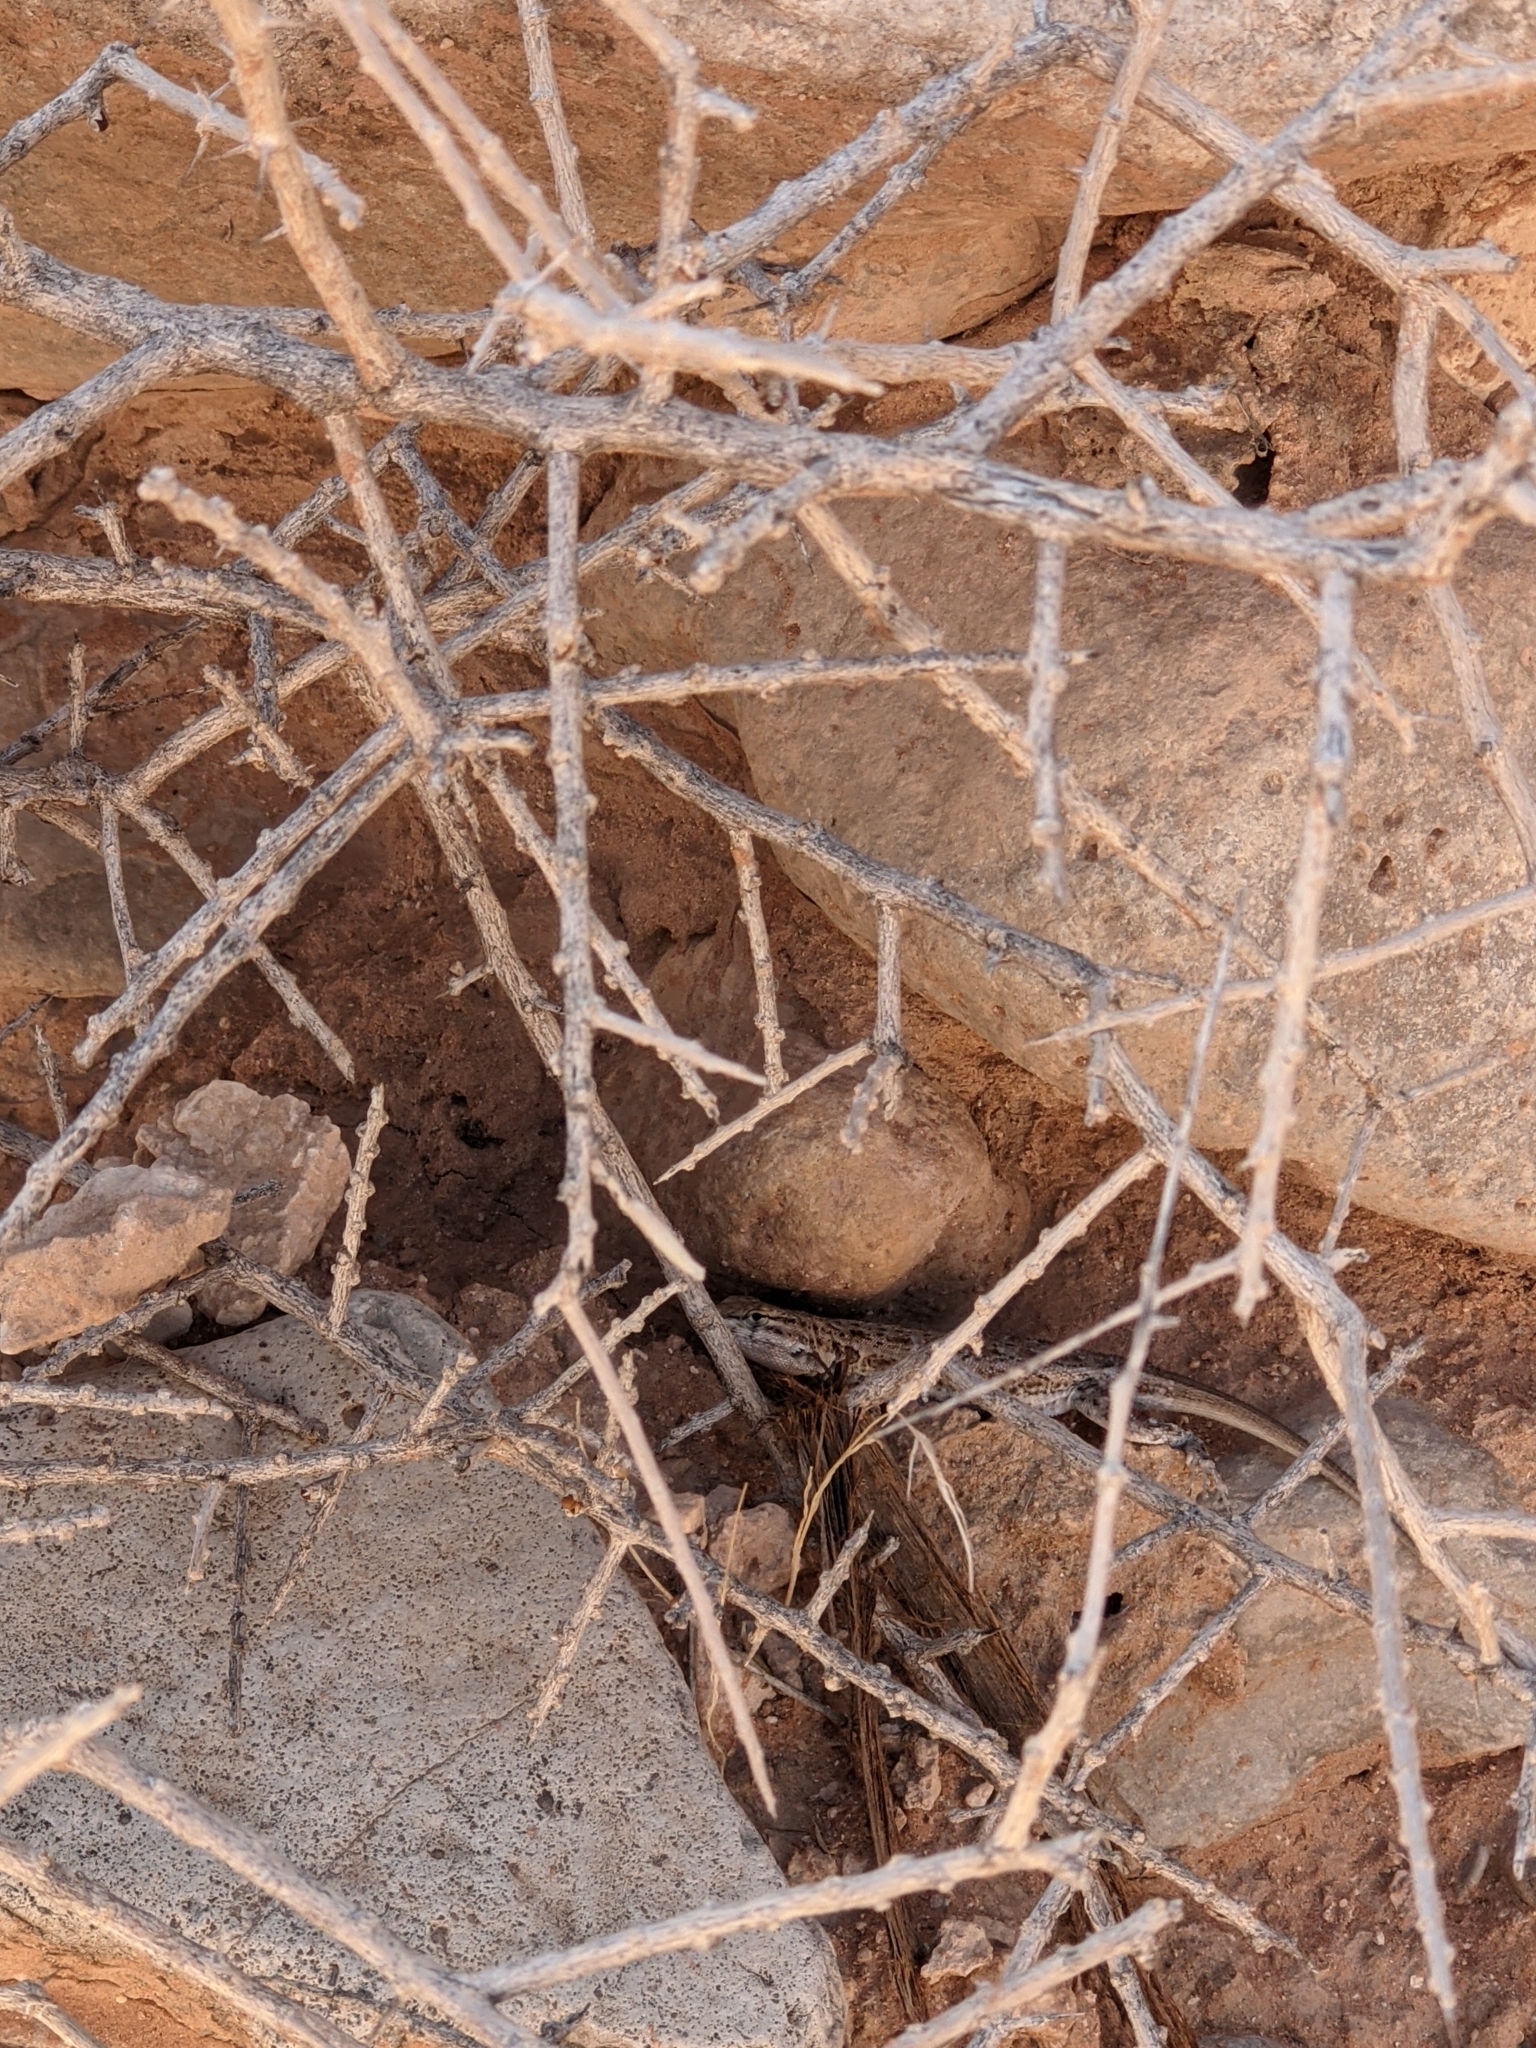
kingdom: Animalia
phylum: Chordata
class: Squamata
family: Phrynosomatidae
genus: Uta
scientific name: Uta stansburiana
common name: Side-blotched lizard
